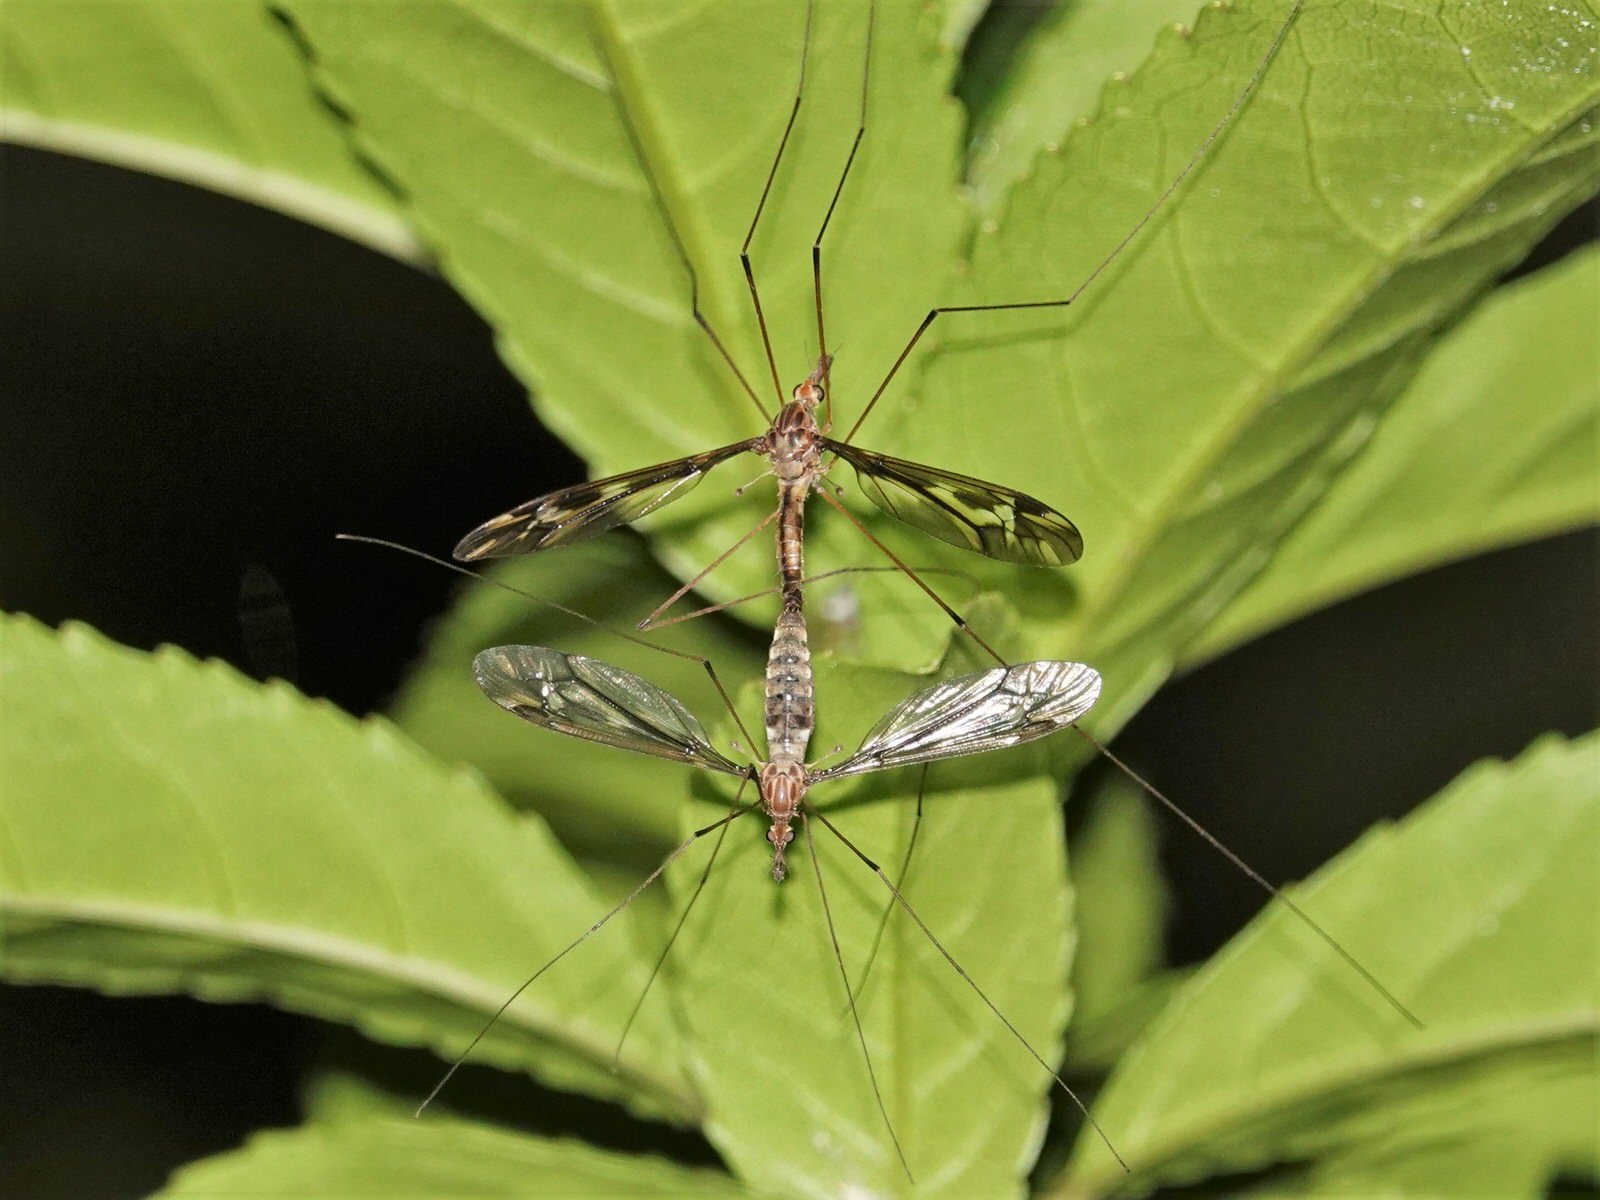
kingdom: Animalia
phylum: Arthropoda
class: Insecta
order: Diptera
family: Tipulidae
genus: Leptotarsus
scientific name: Leptotarsus huttoni
